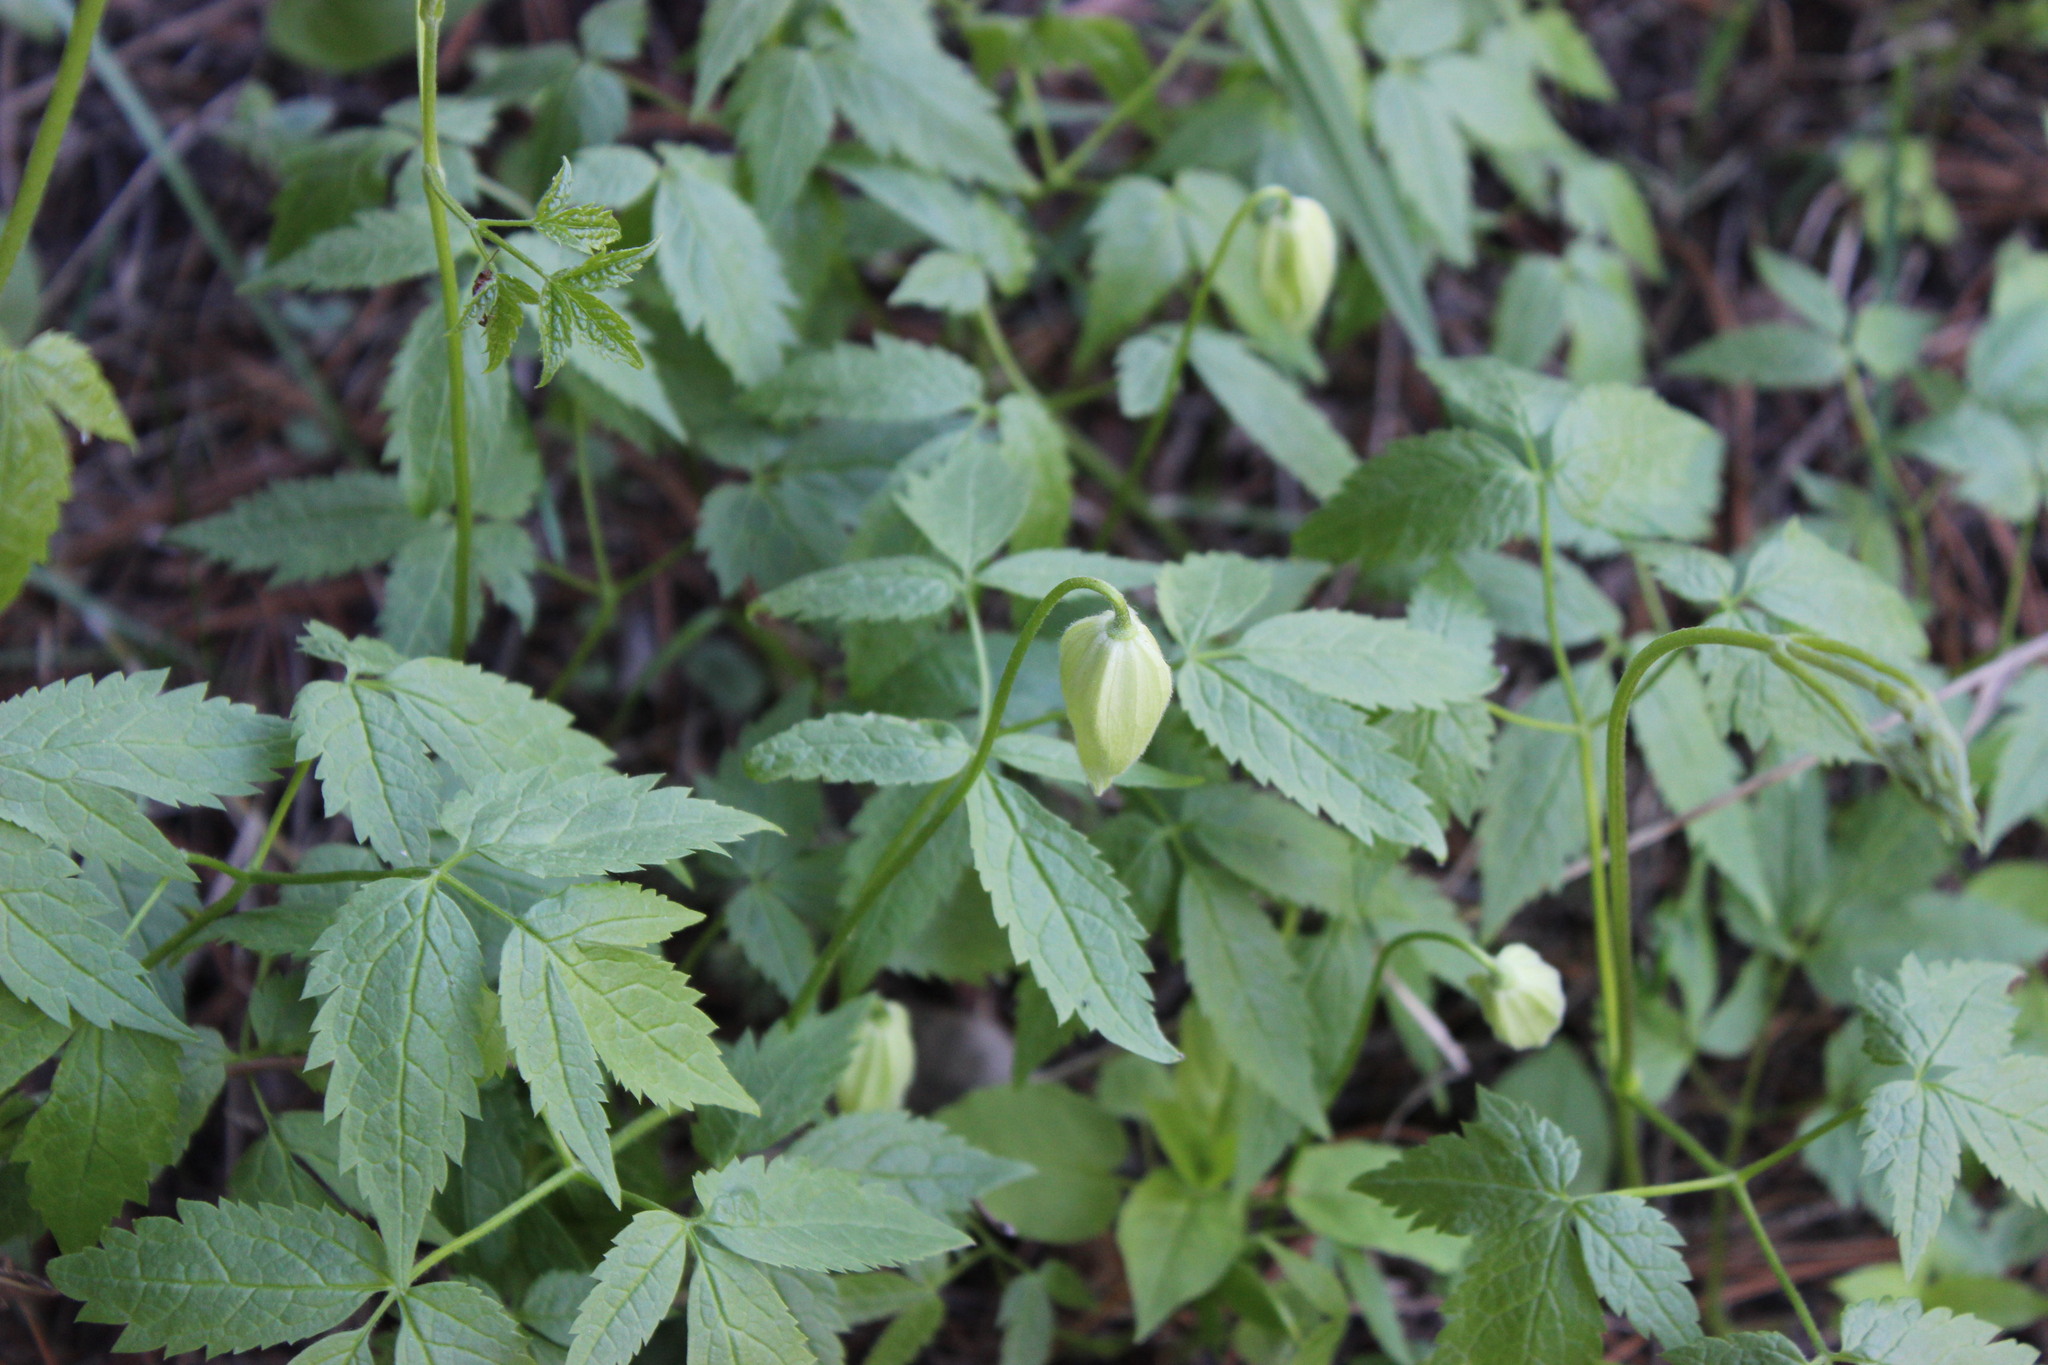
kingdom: Plantae
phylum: Tracheophyta
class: Magnoliopsida
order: Ranunculales
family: Ranunculaceae
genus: Clematis
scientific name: Clematis sibirica
